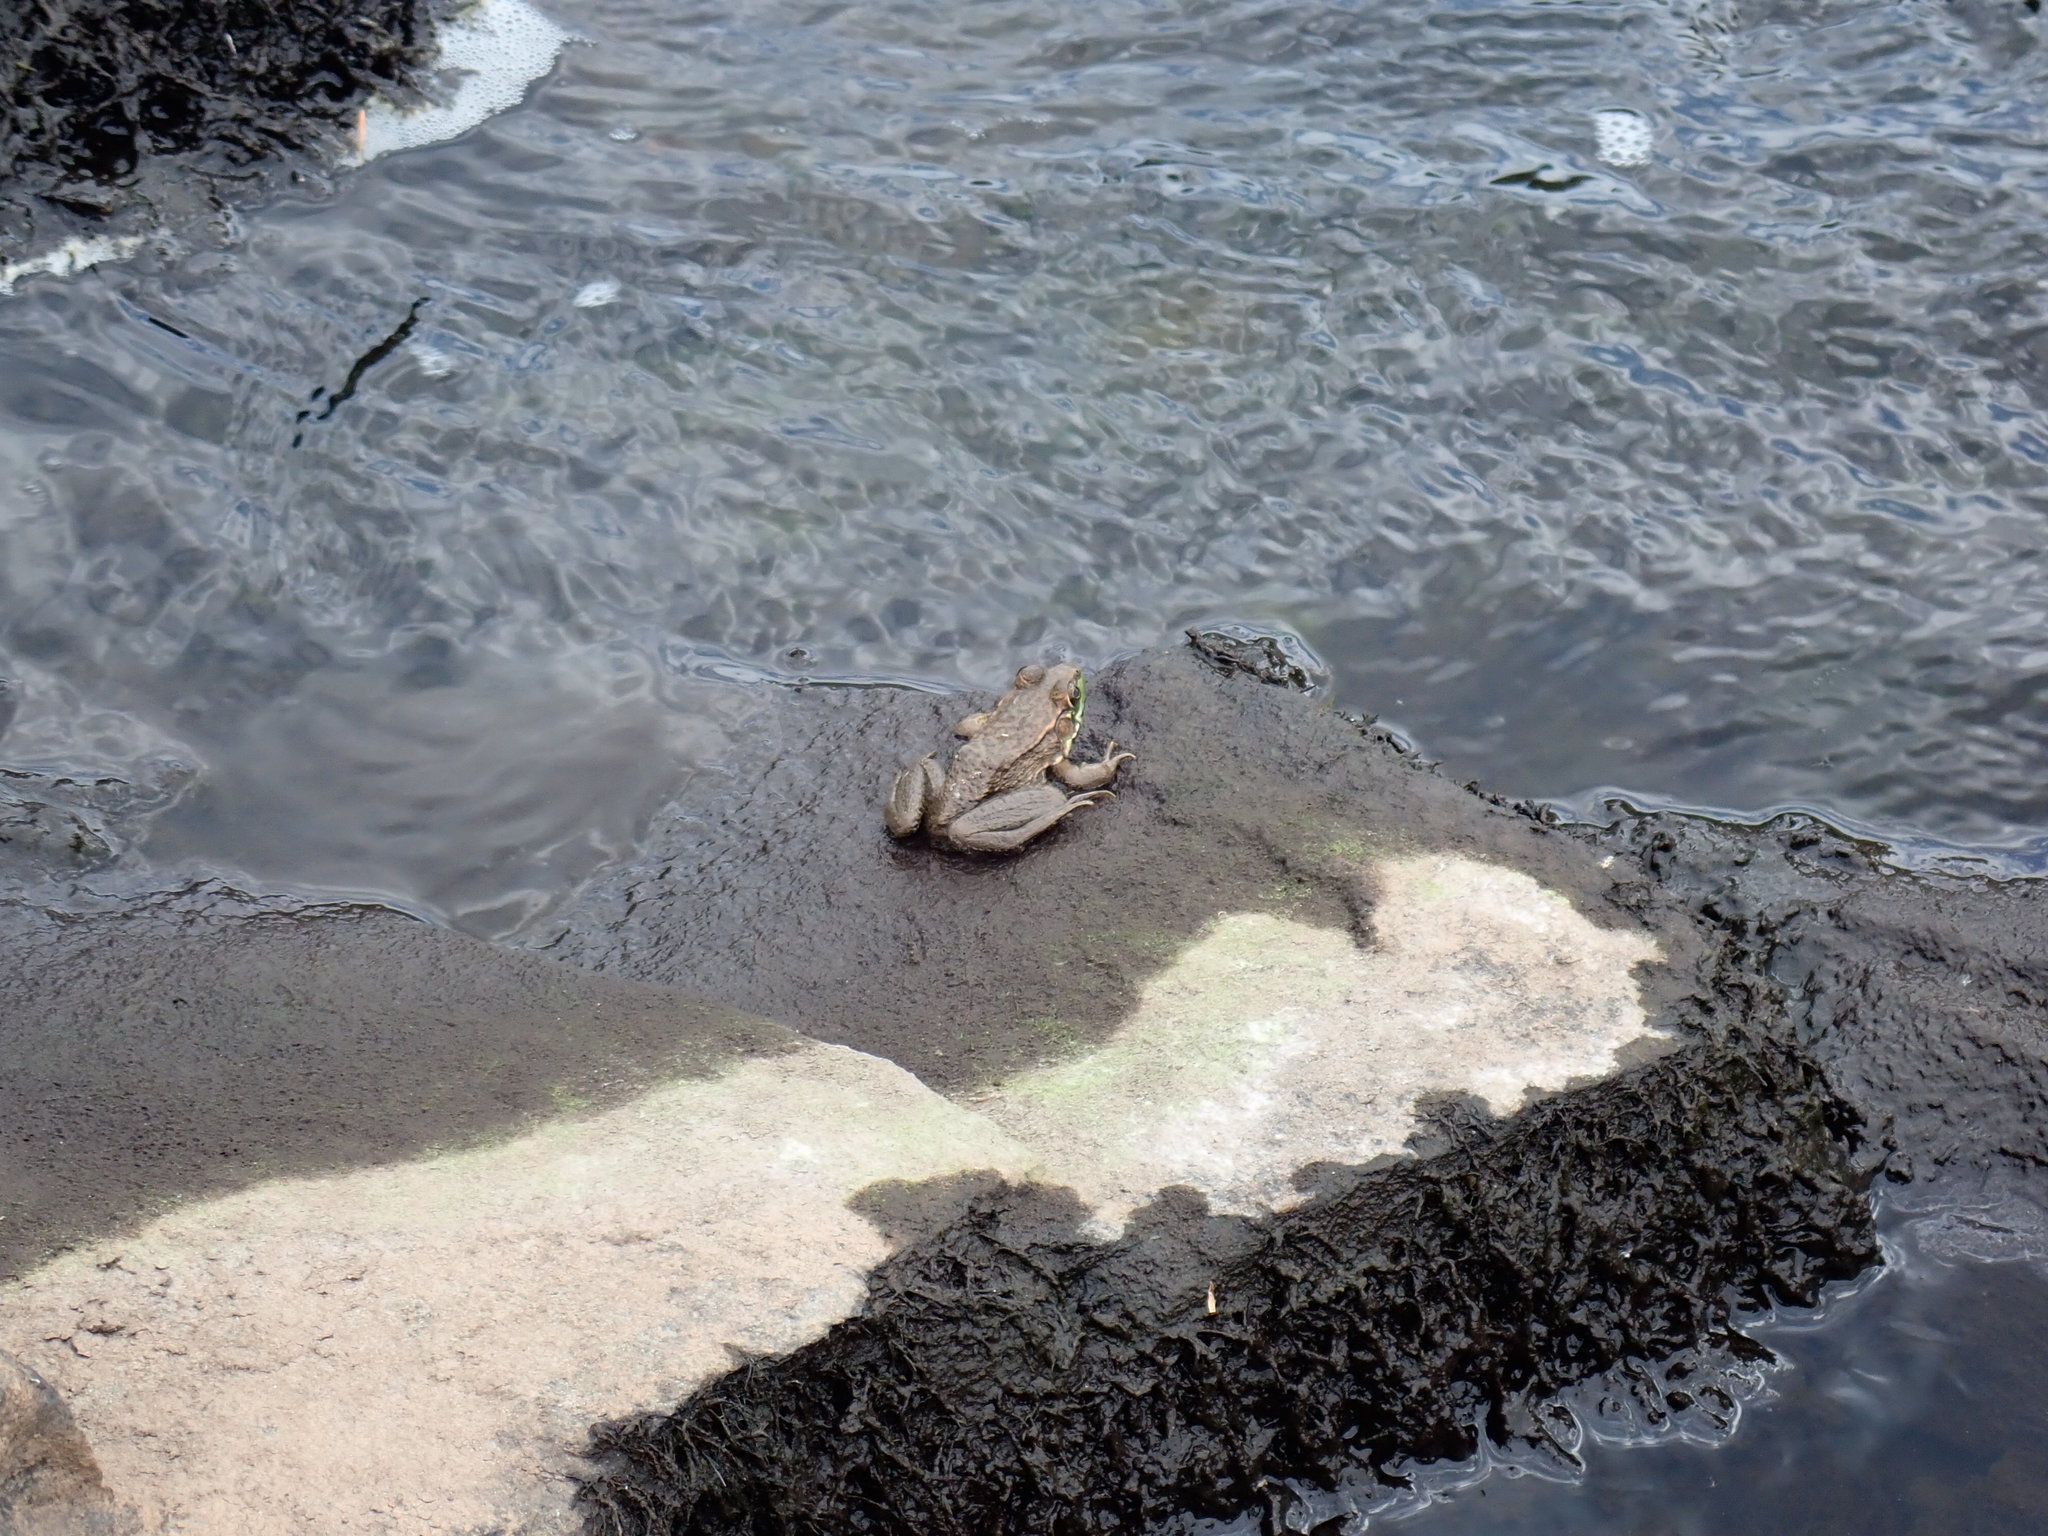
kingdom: Animalia
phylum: Chordata
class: Amphibia
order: Anura
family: Ranidae
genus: Lithobates
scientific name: Lithobates clamitans
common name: Green frog
